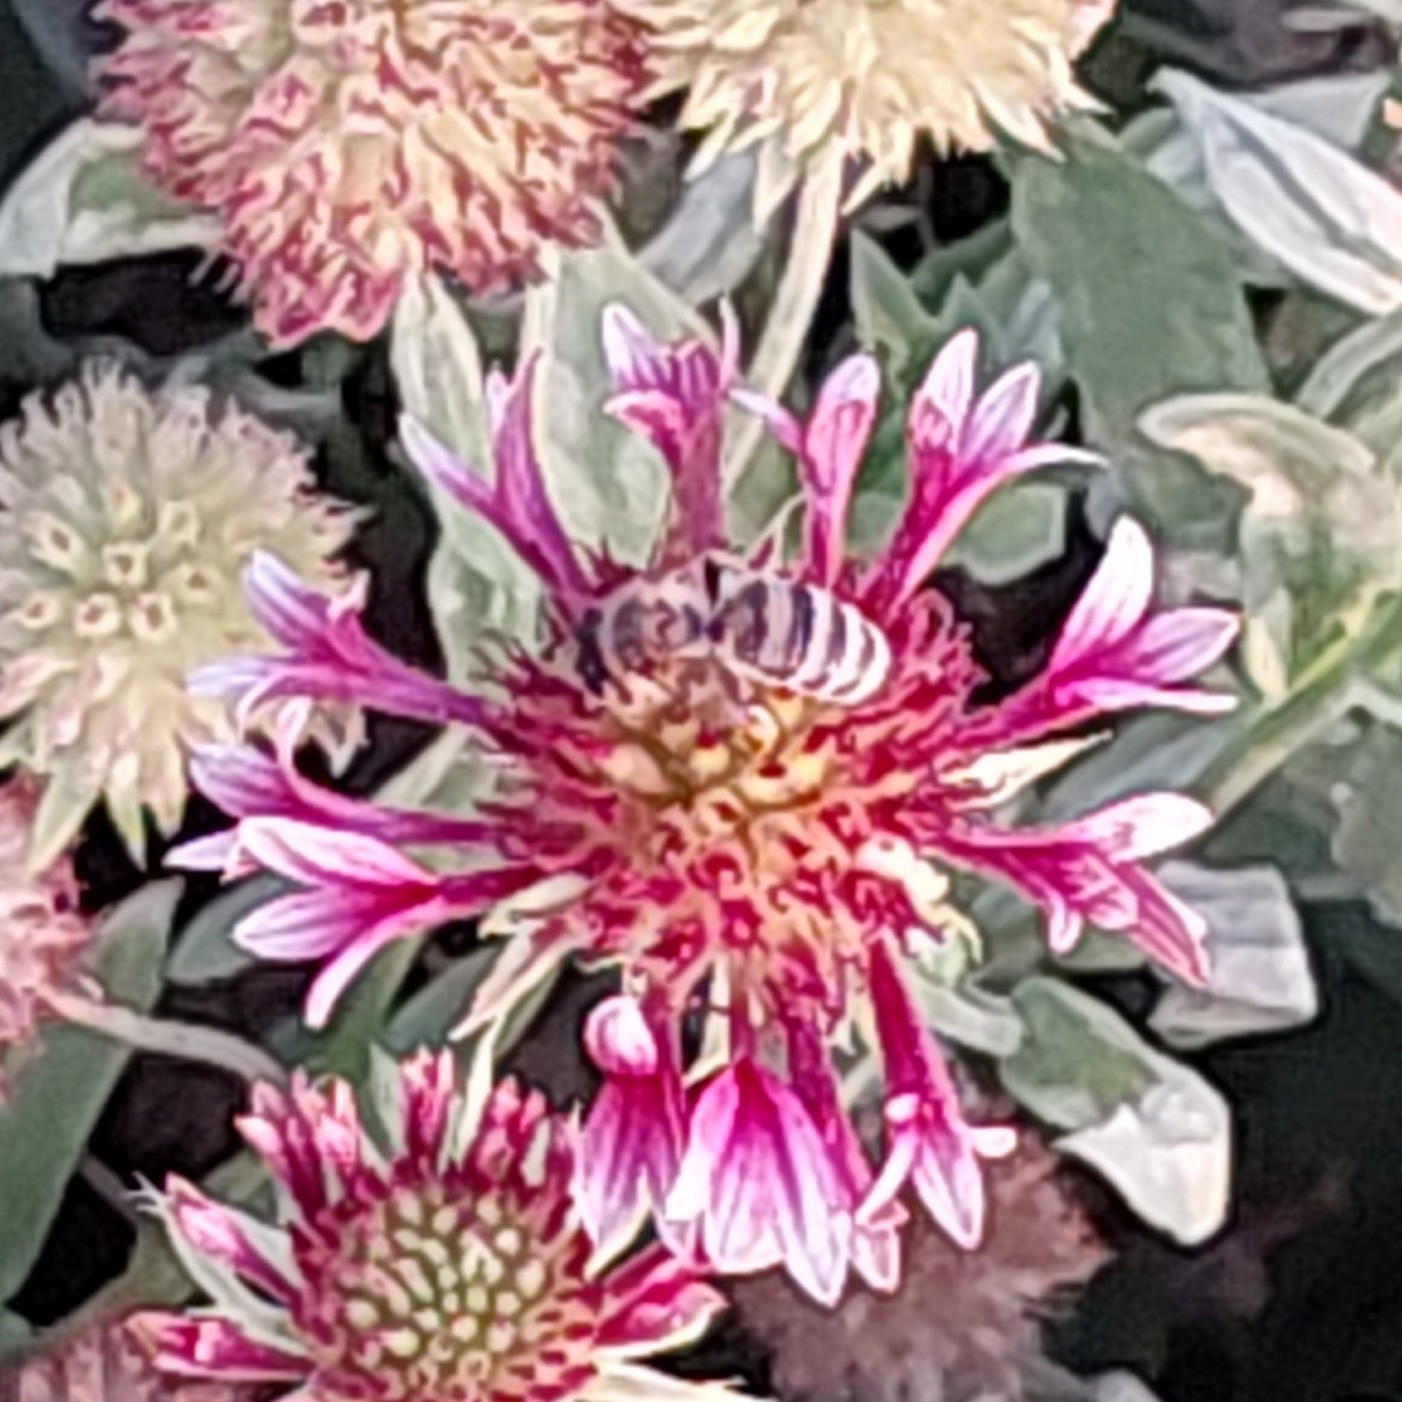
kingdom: Animalia
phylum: Arthropoda
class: Insecta
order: Hymenoptera
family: Apidae
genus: Apis
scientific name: Apis mellifera
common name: Honey bee
